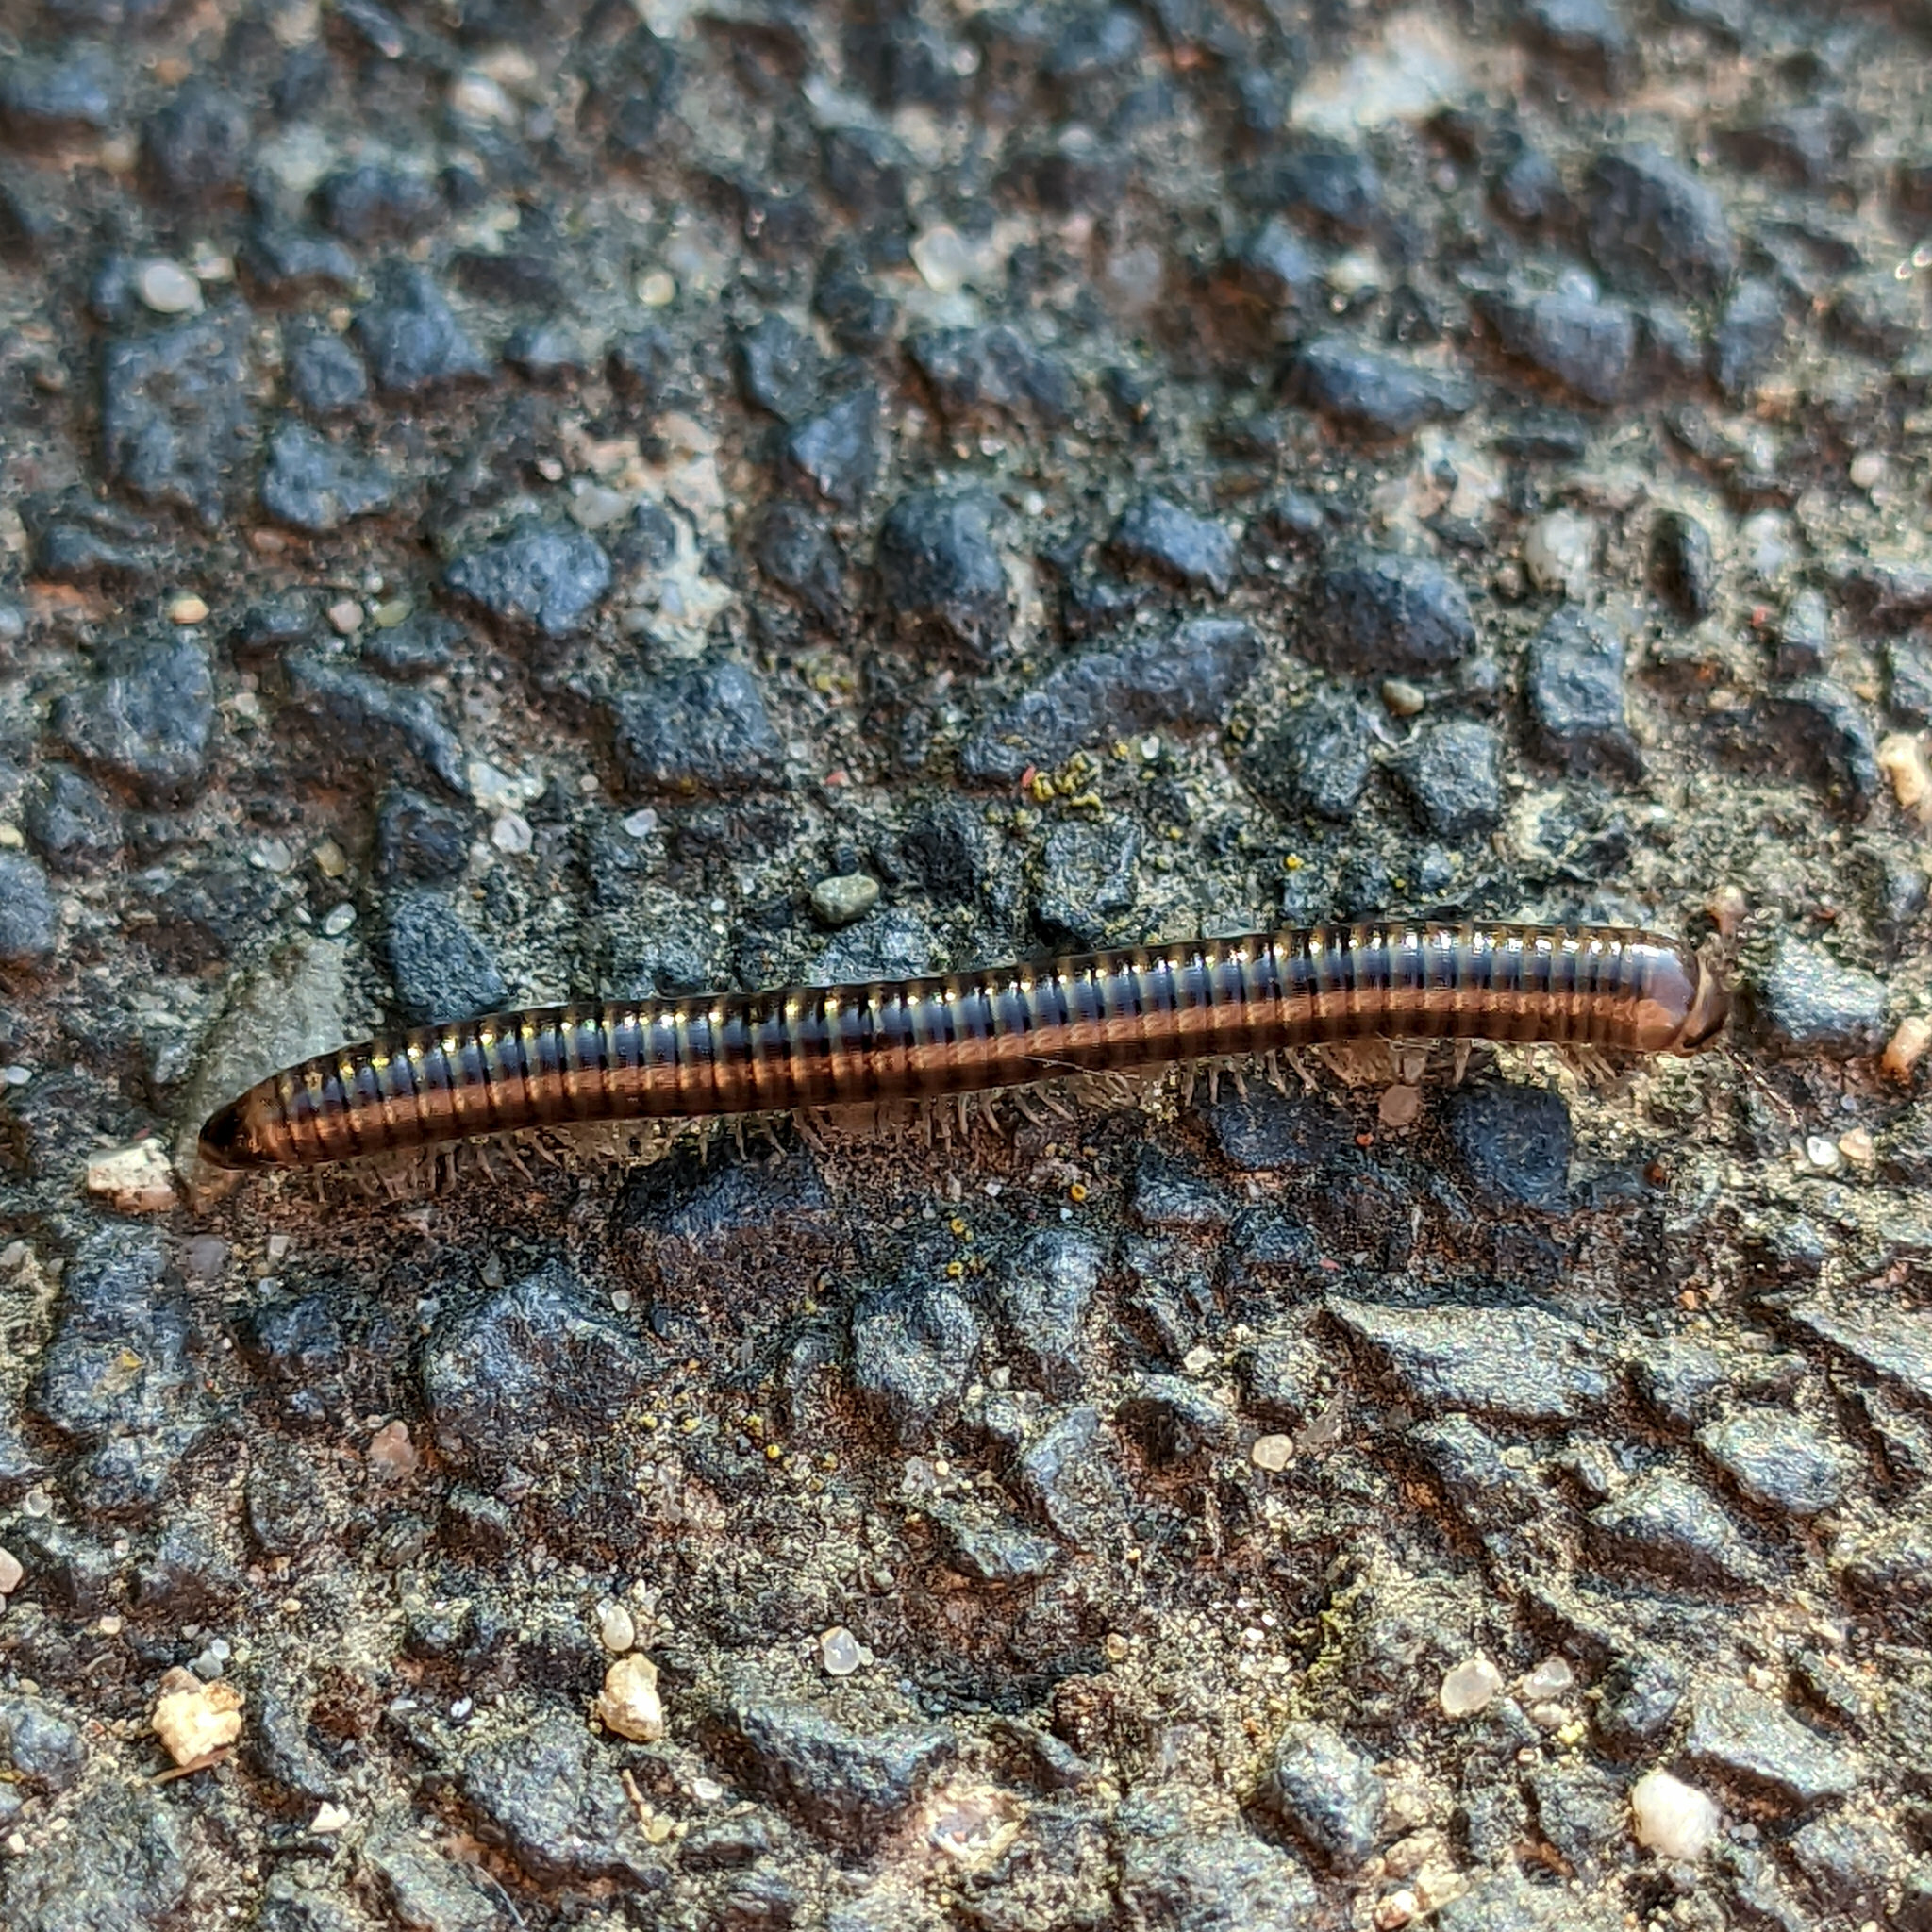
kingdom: Animalia
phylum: Arthropoda
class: Diplopoda
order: Julida
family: Julidae
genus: Ommatoiulus
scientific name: Ommatoiulus sabulosus
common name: Striped millipede
